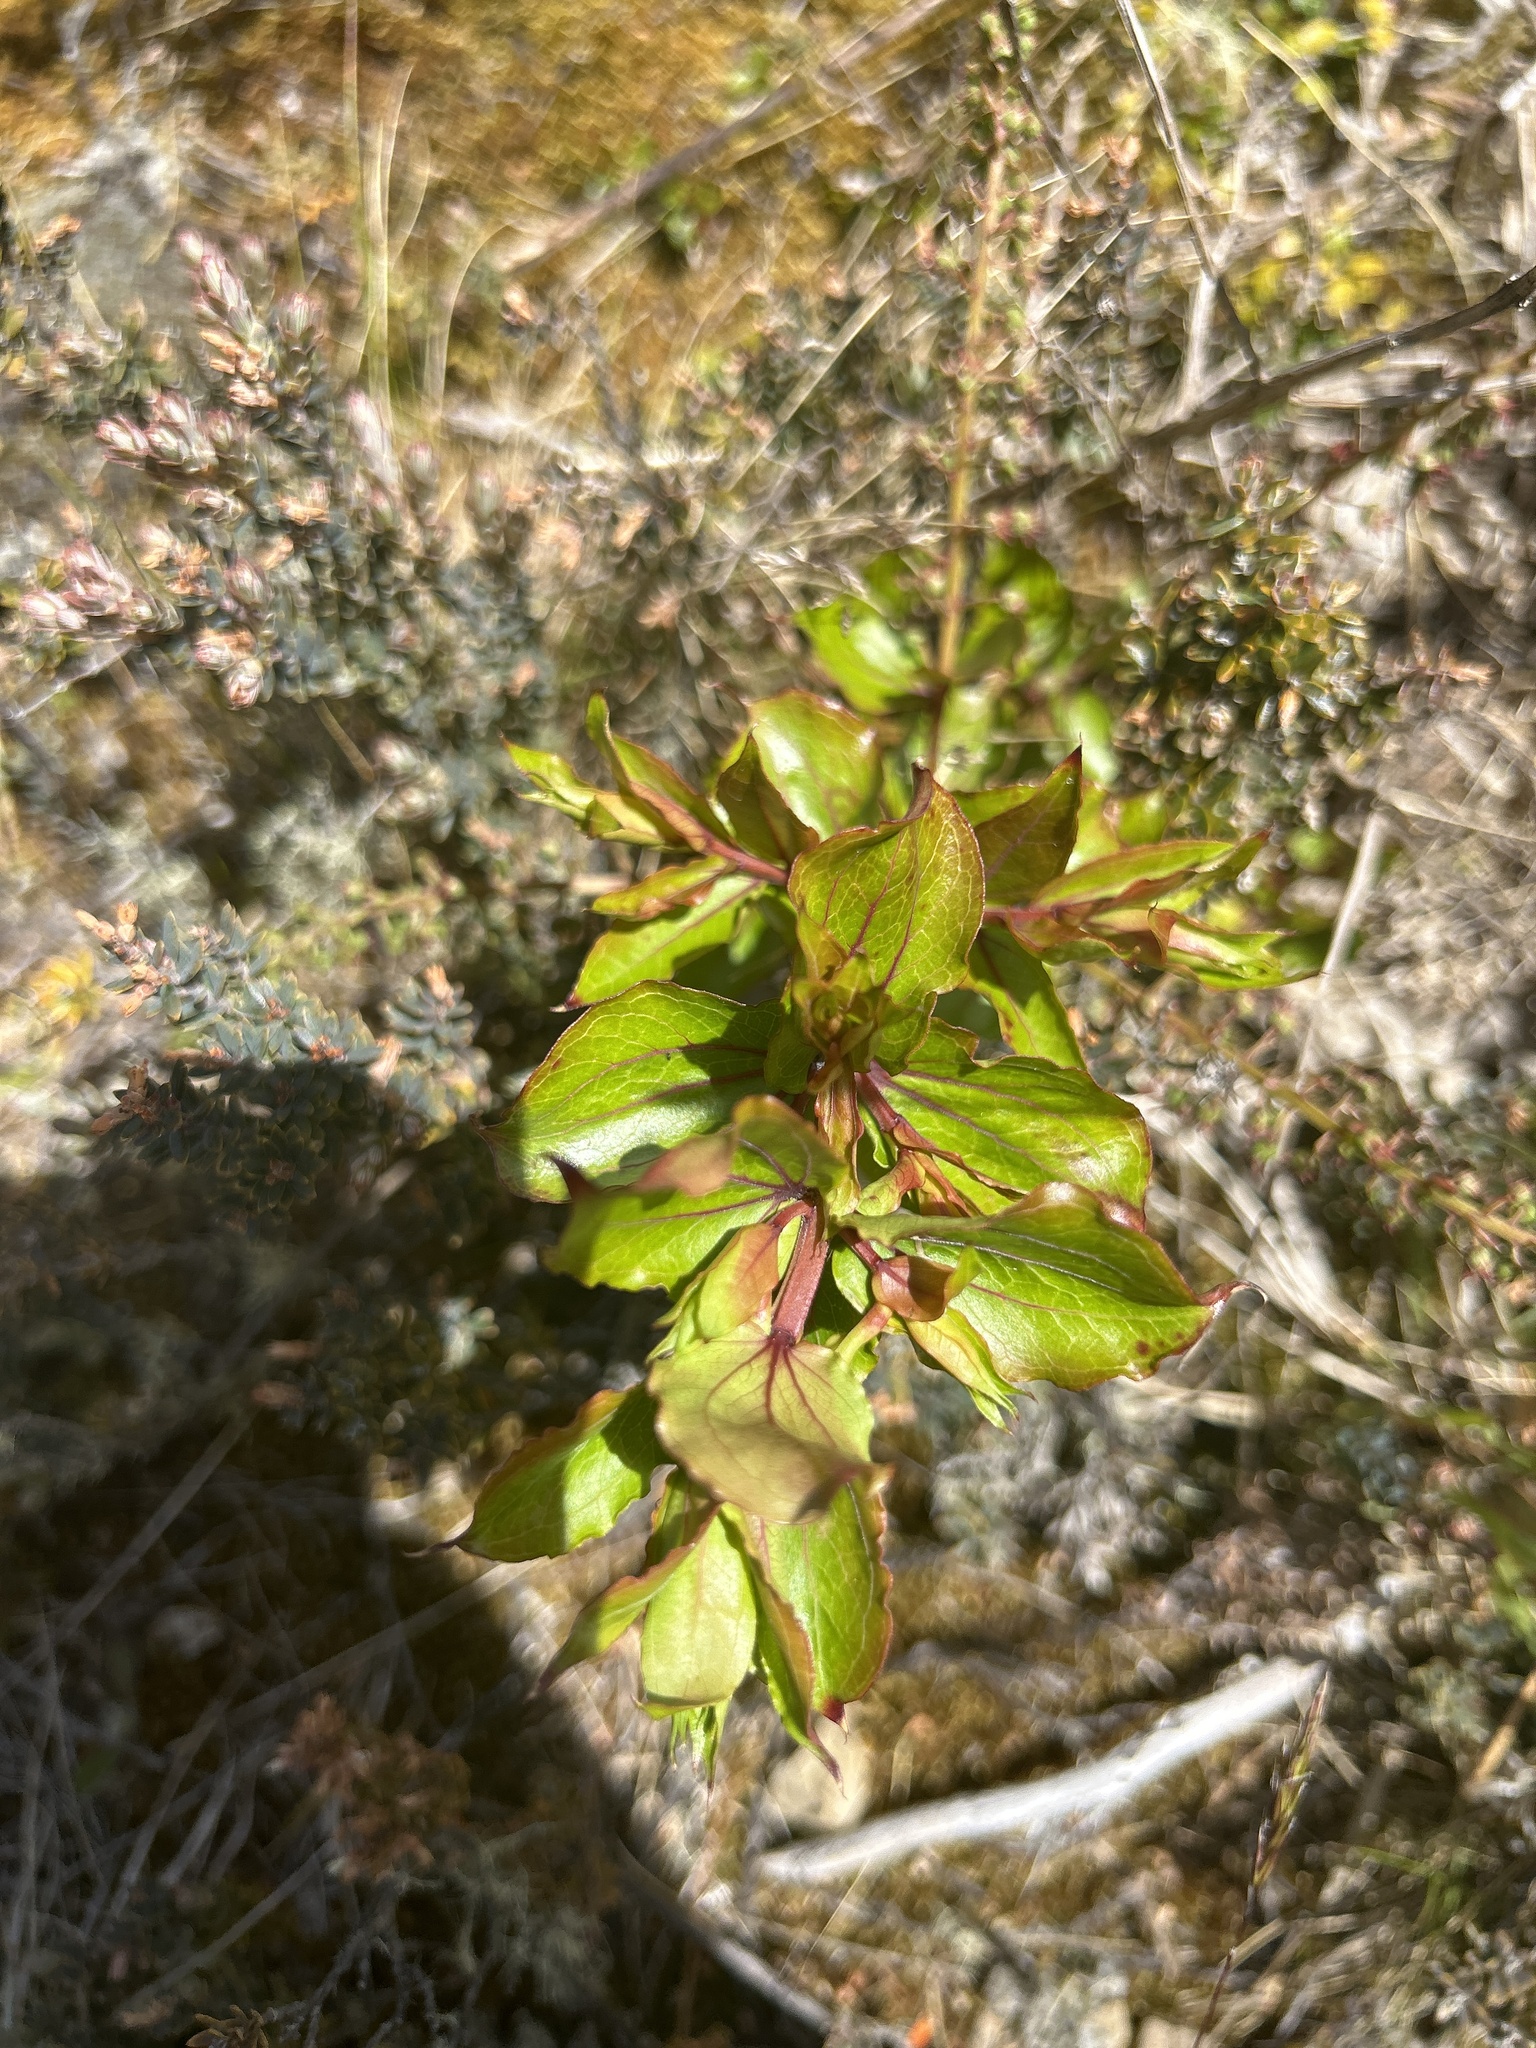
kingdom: Plantae
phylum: Tracheophyta
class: Magnoliopsida
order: Cucurbitales
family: Coriariaceae
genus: Coriaria
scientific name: Coriaria sarmentosa
